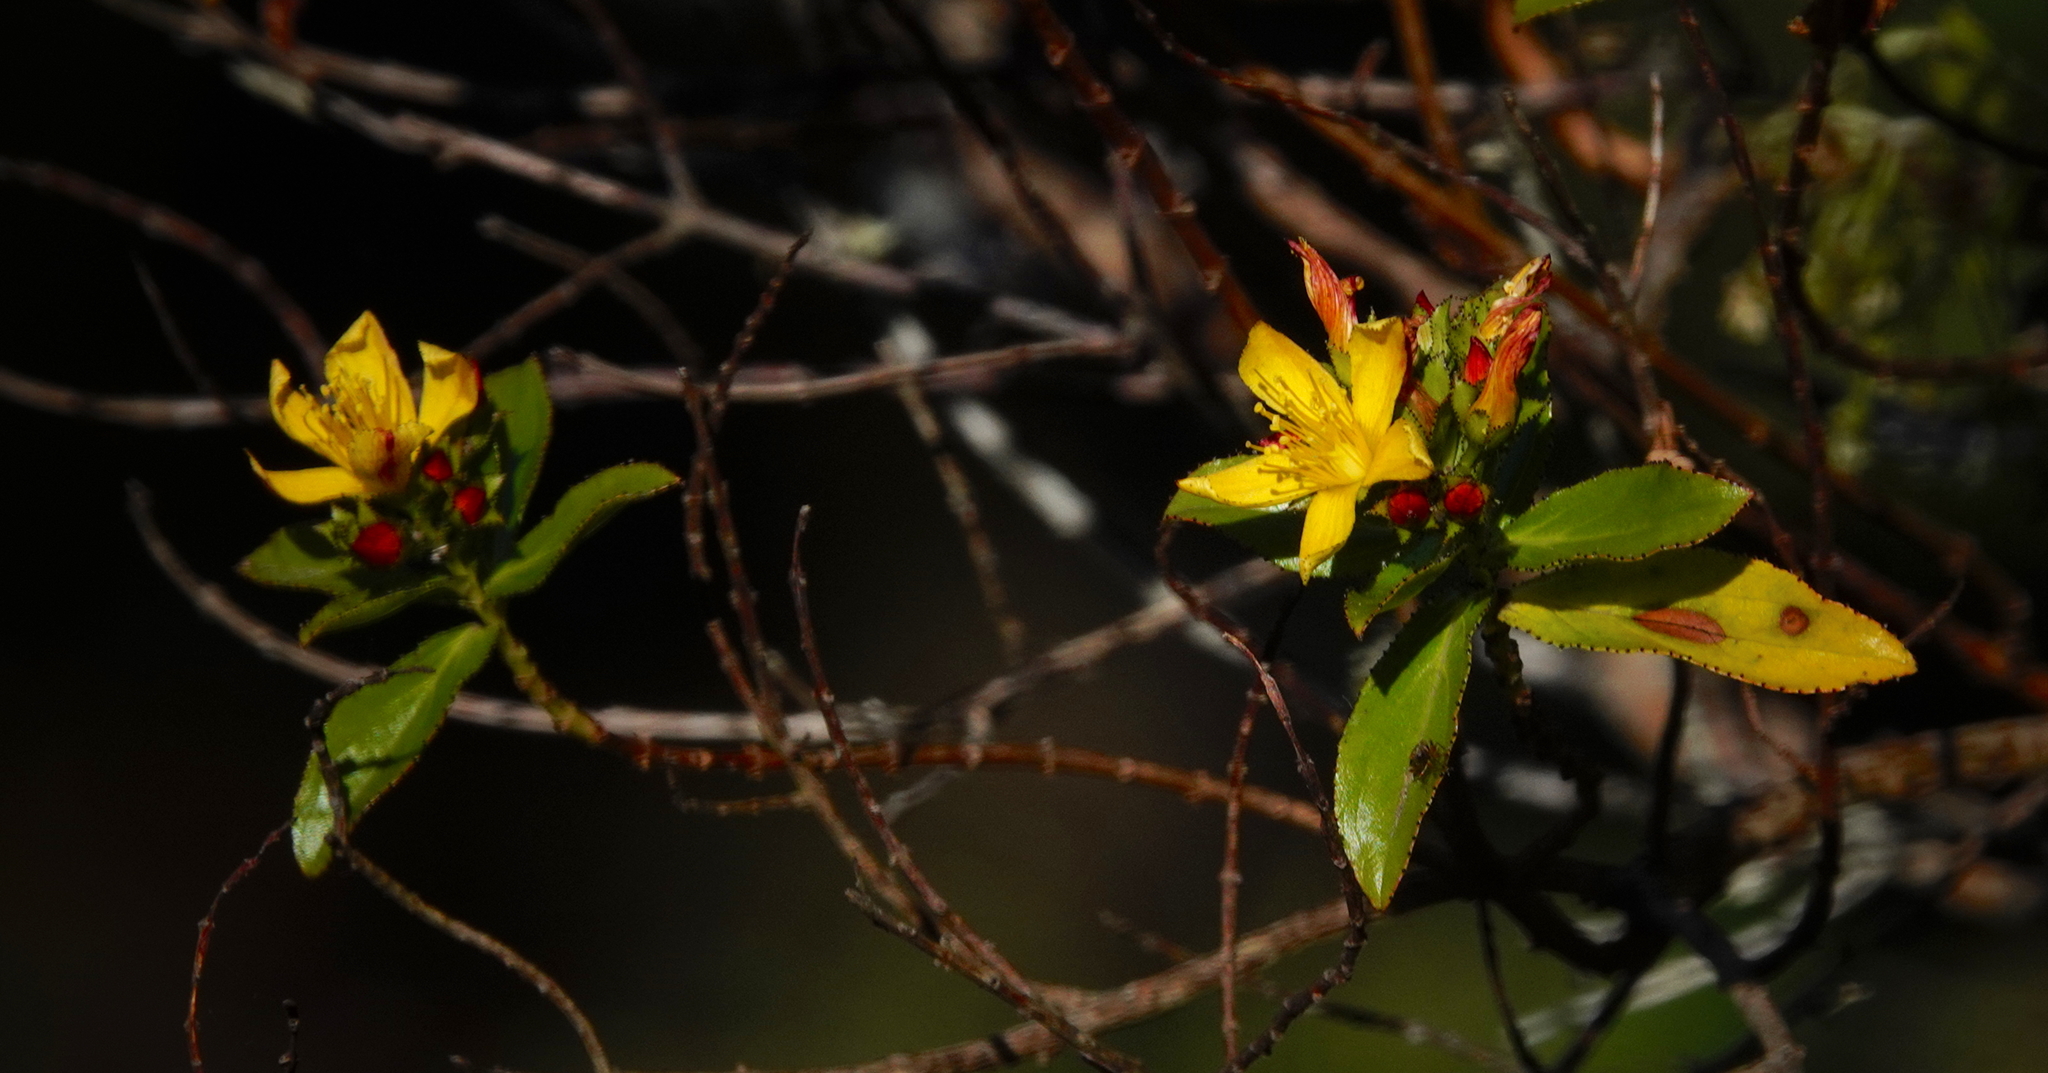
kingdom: Plantae
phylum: Tracheophyta
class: Magnoliopsida
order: Malpighiales
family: Hypericaceae
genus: Hypericum
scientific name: Hypericum glandulosum
